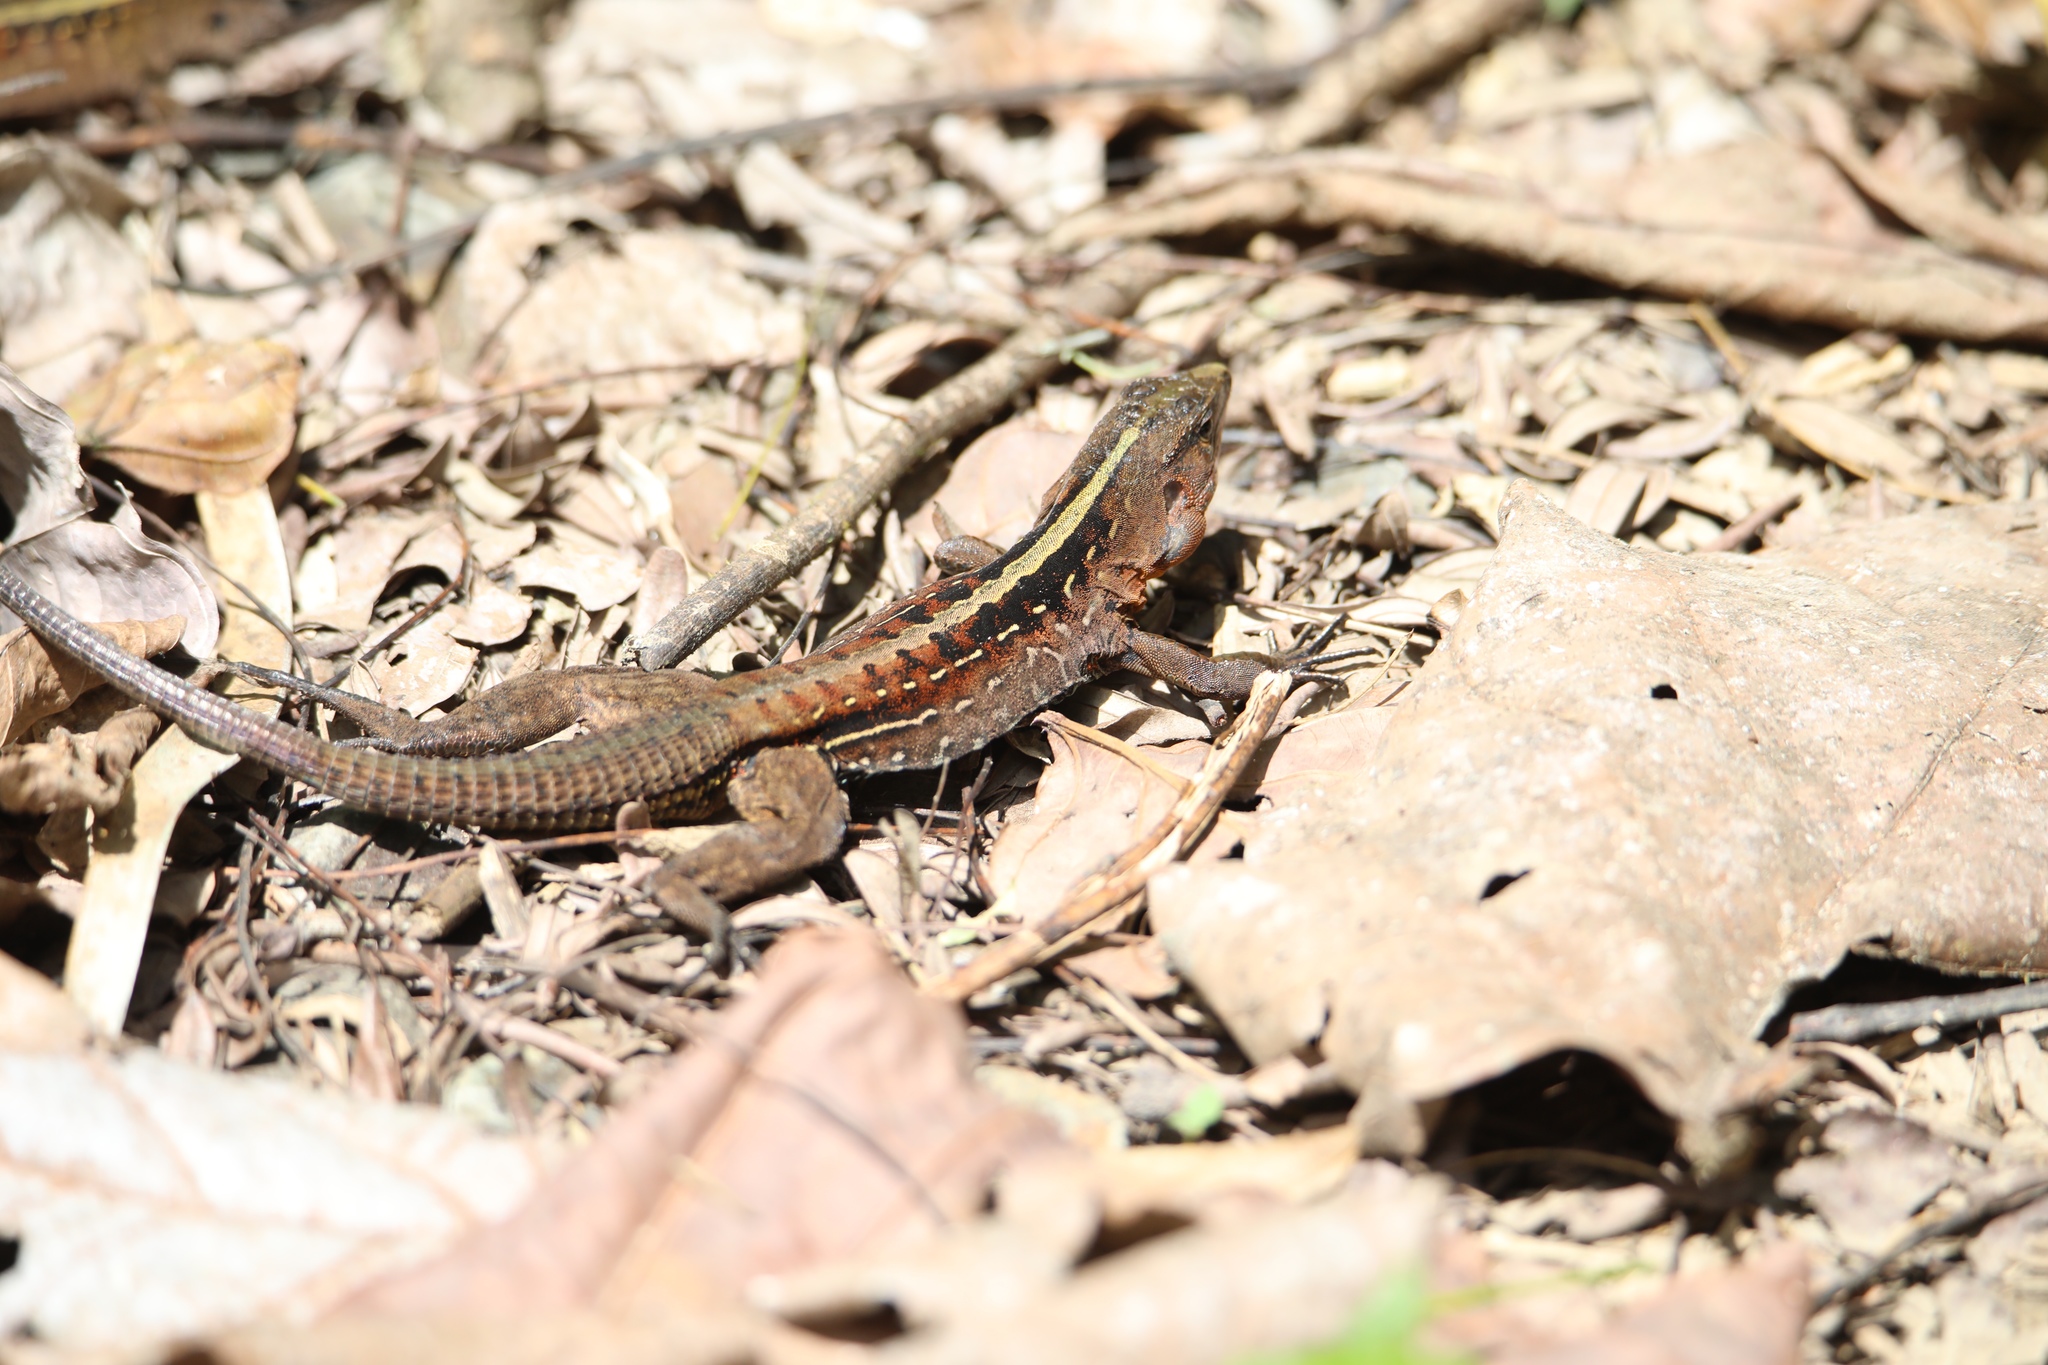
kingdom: Animalia
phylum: Chordata
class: Squamata
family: Teiidae
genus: Holcosus
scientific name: Holcosus festivus
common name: Middle american ameiva
